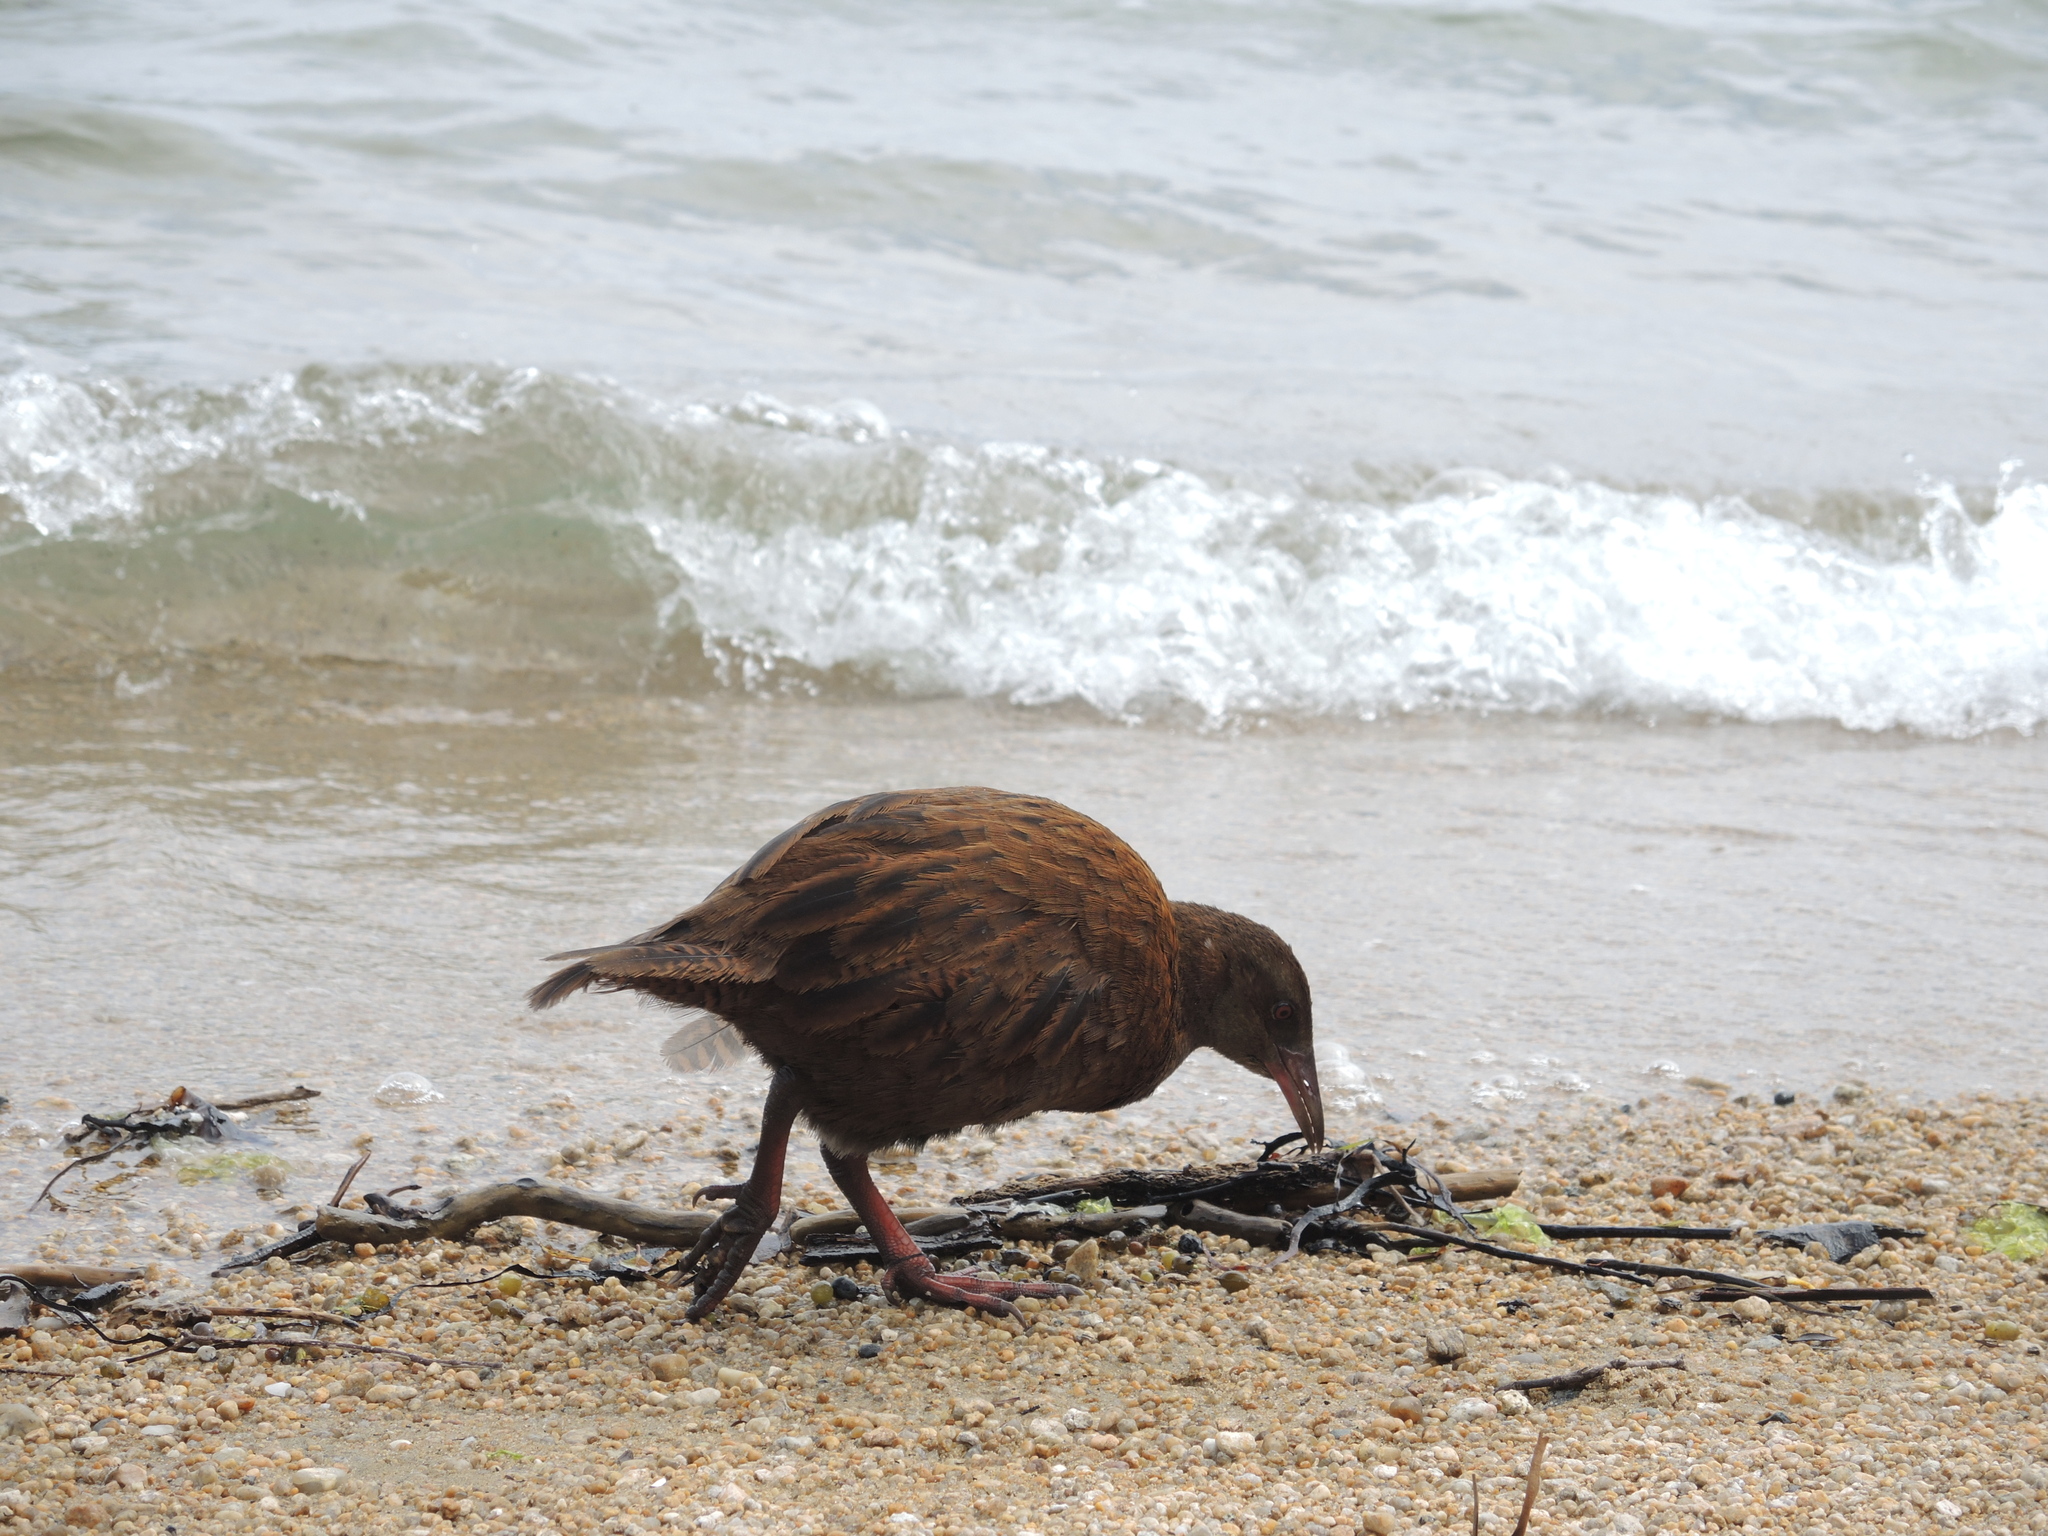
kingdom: Animalia
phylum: Chordata
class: Aves
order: Gruiformes
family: Rallidae
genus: Gallirallus
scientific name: Gallirallus australis
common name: Weka
